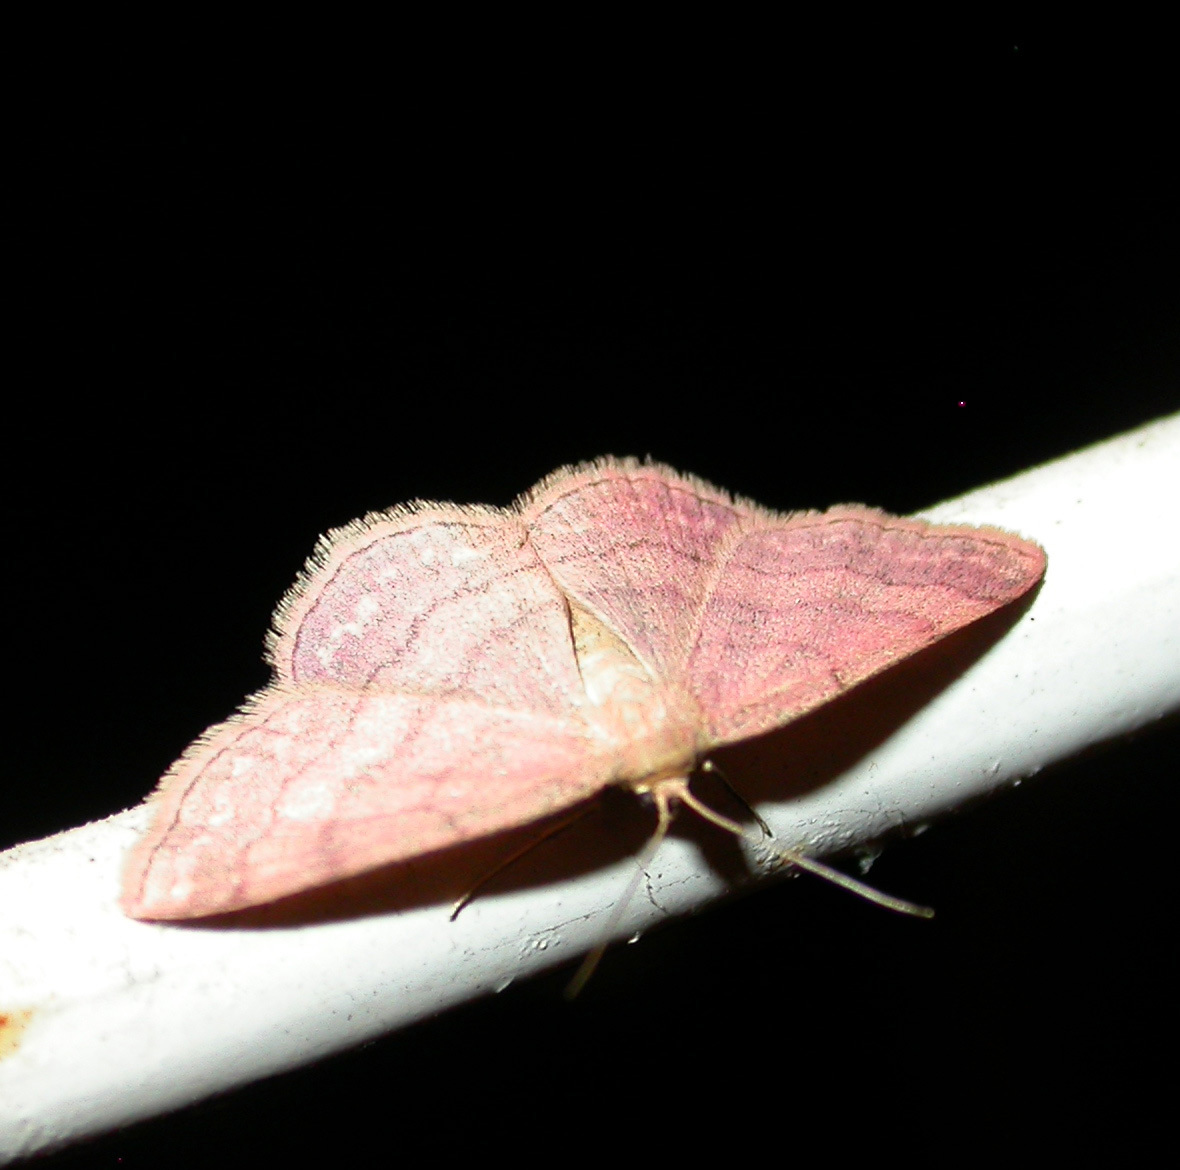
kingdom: Animalia
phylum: Arthropoda
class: Insecta
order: Lepidoptera
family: Geometridae
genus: Scopula
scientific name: Scopula rubiginata
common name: Tawny wave
